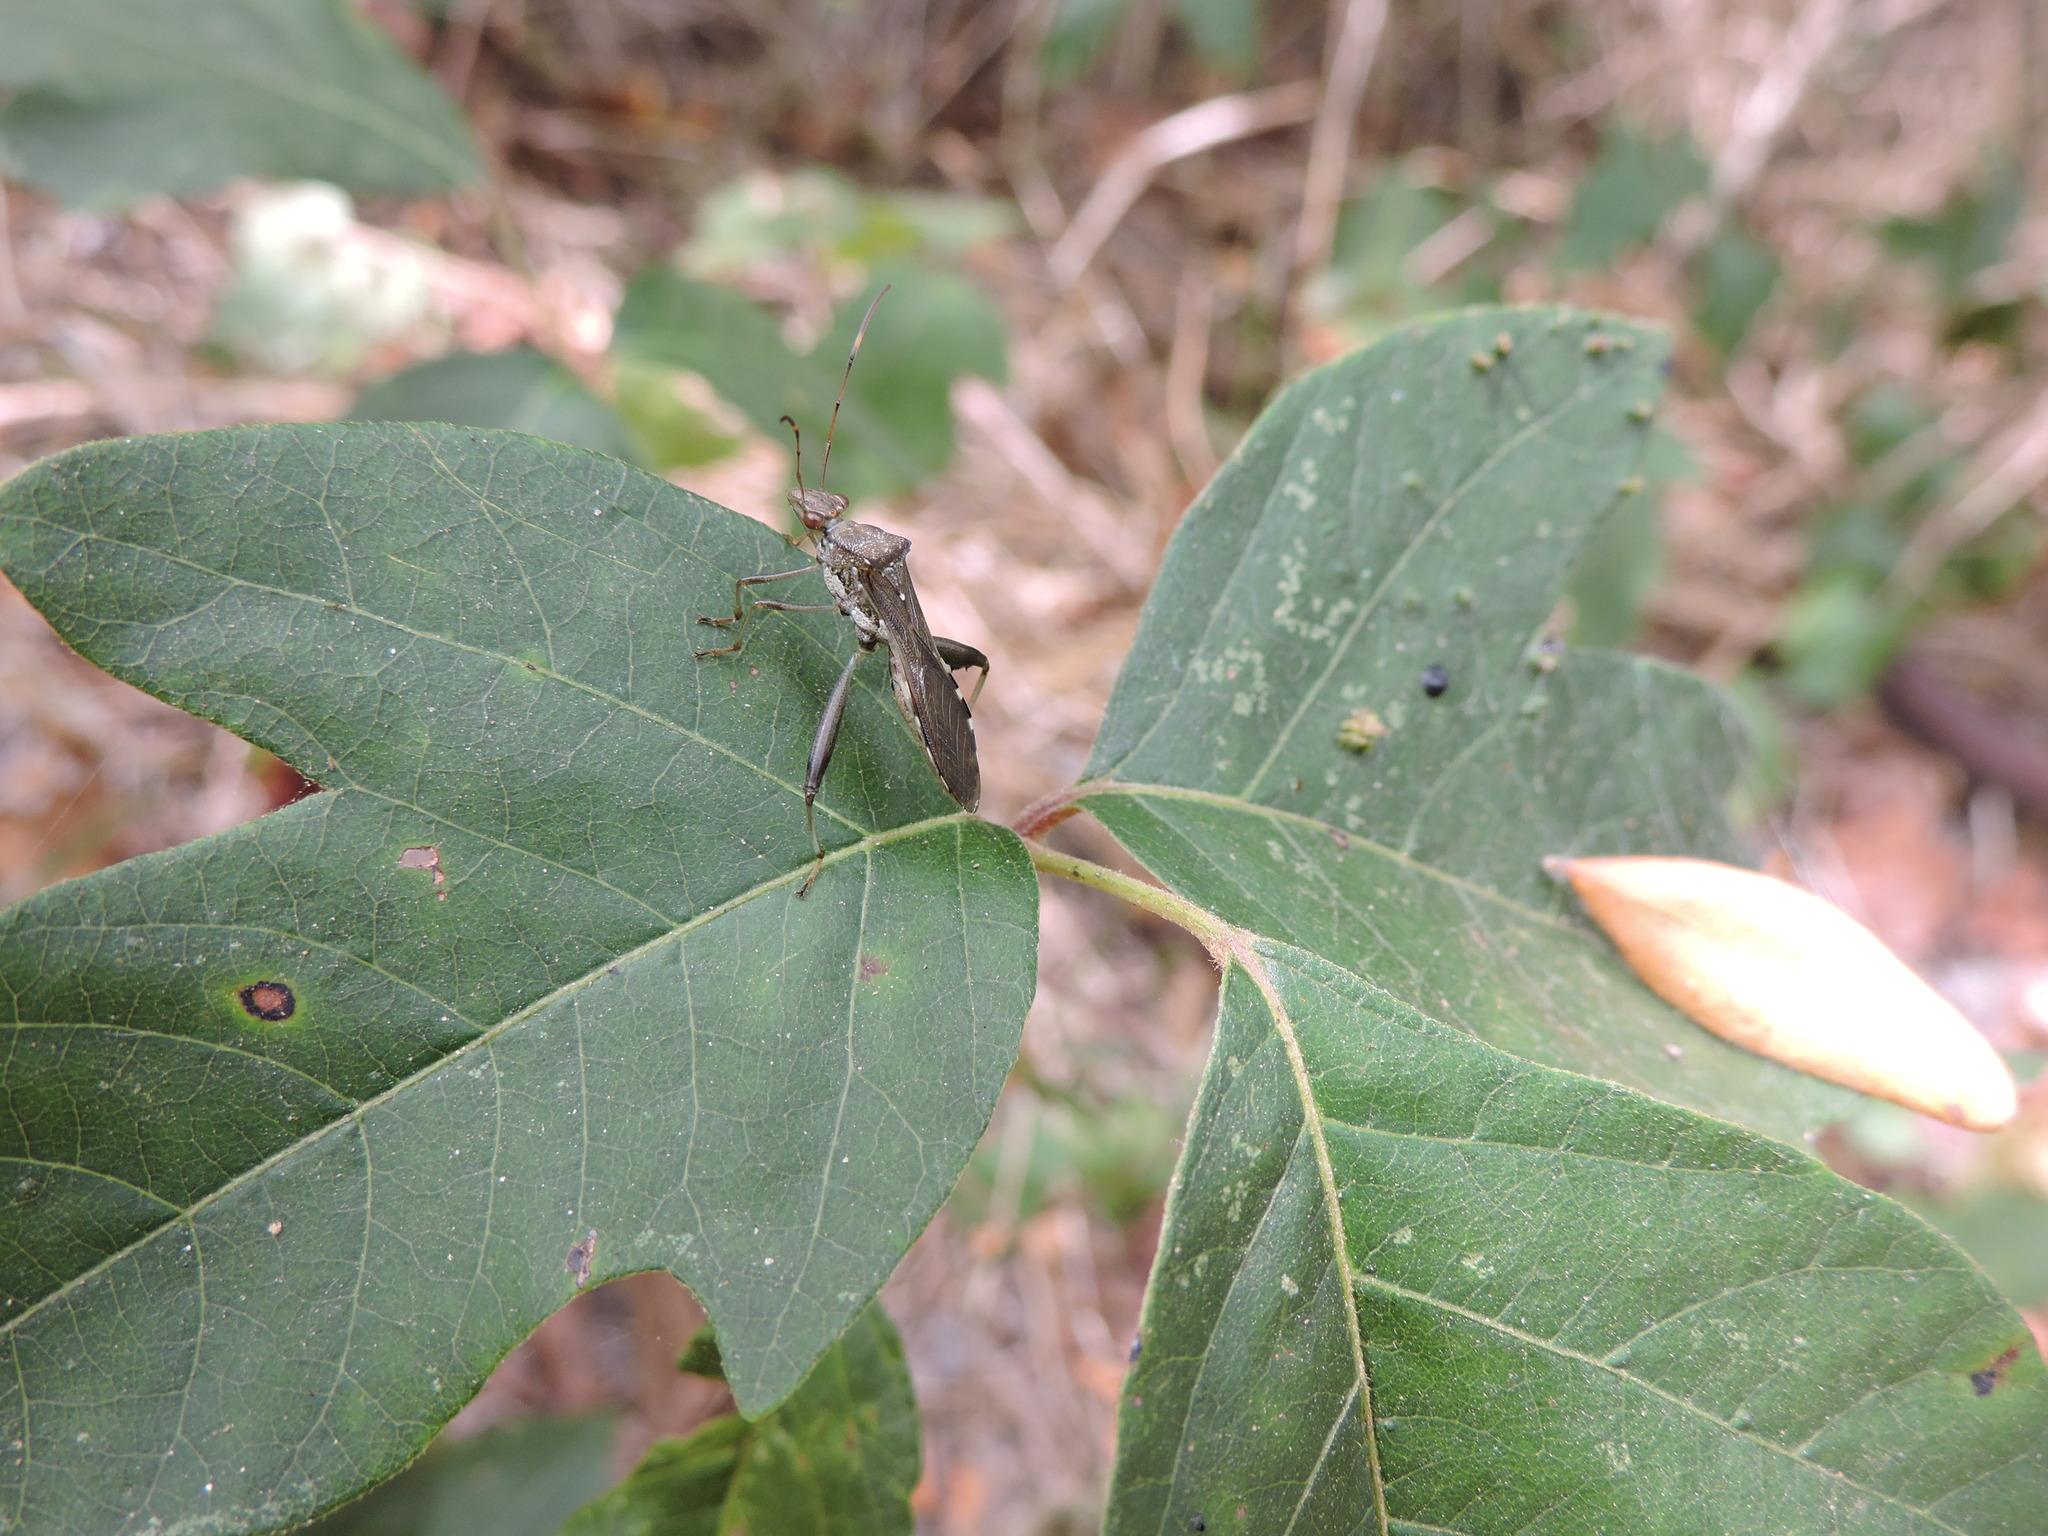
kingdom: Animalia
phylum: Arthropoda
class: Insecta
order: Hemiptera
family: Alydidae
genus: Hyalymenus
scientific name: Hyalymenus tarsatus
